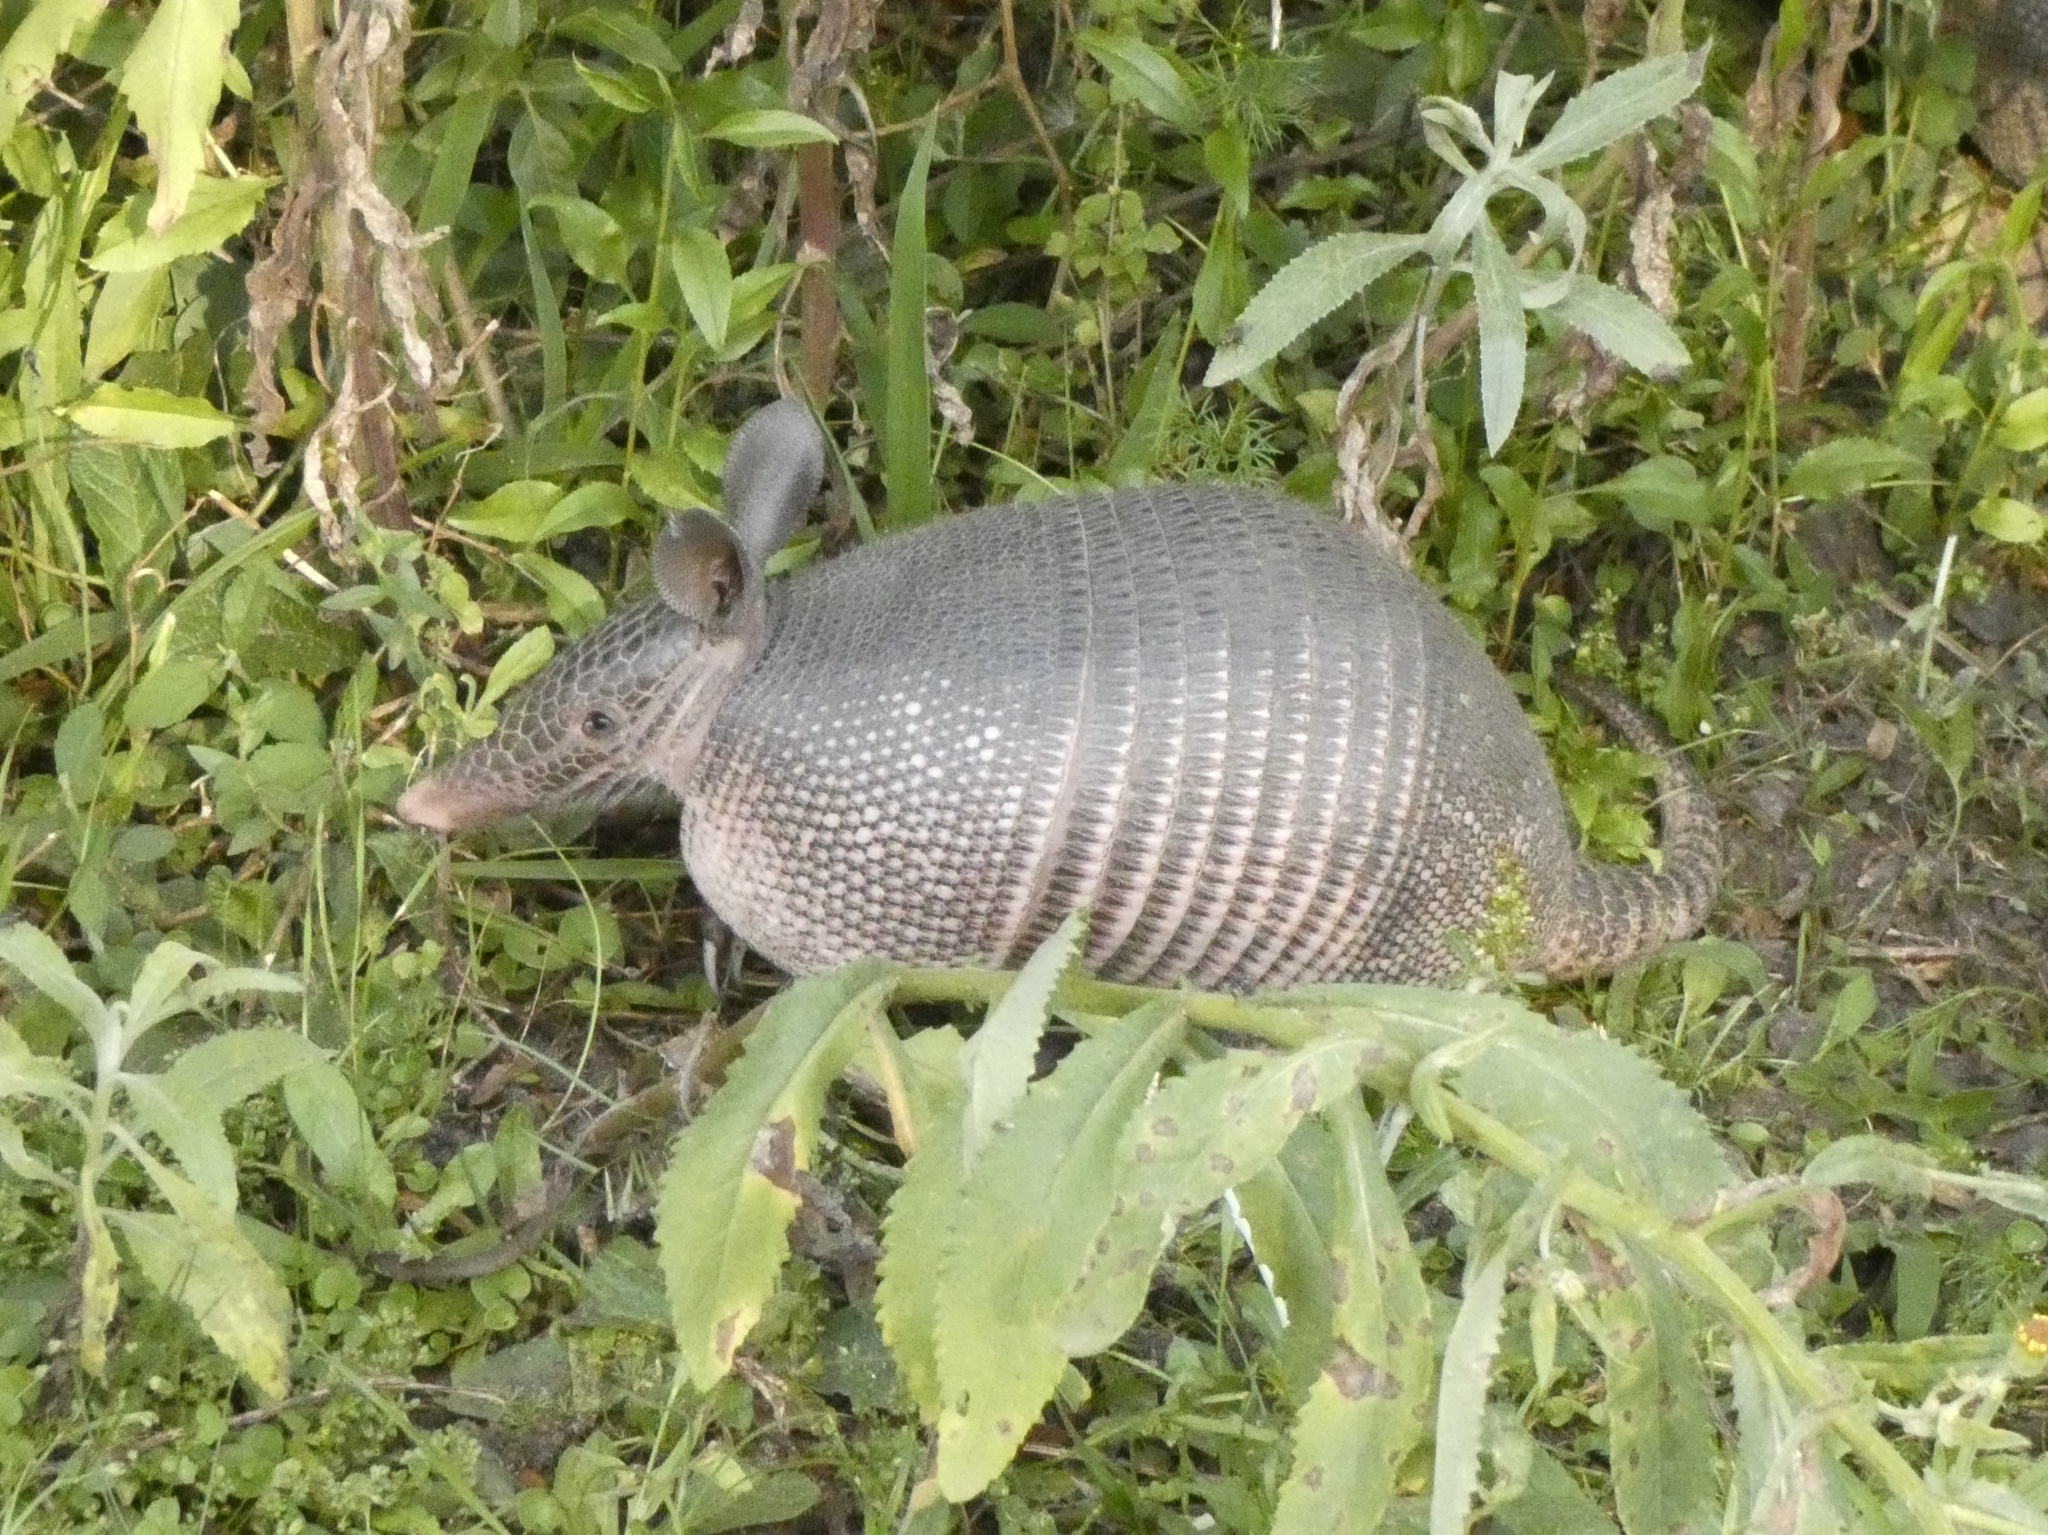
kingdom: Animalia
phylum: Chordata
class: Mammalia
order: Cingulata
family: Dasypodidae
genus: Dasypus
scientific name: Dasypus novemcinctus
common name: Nine-banded armadillo
